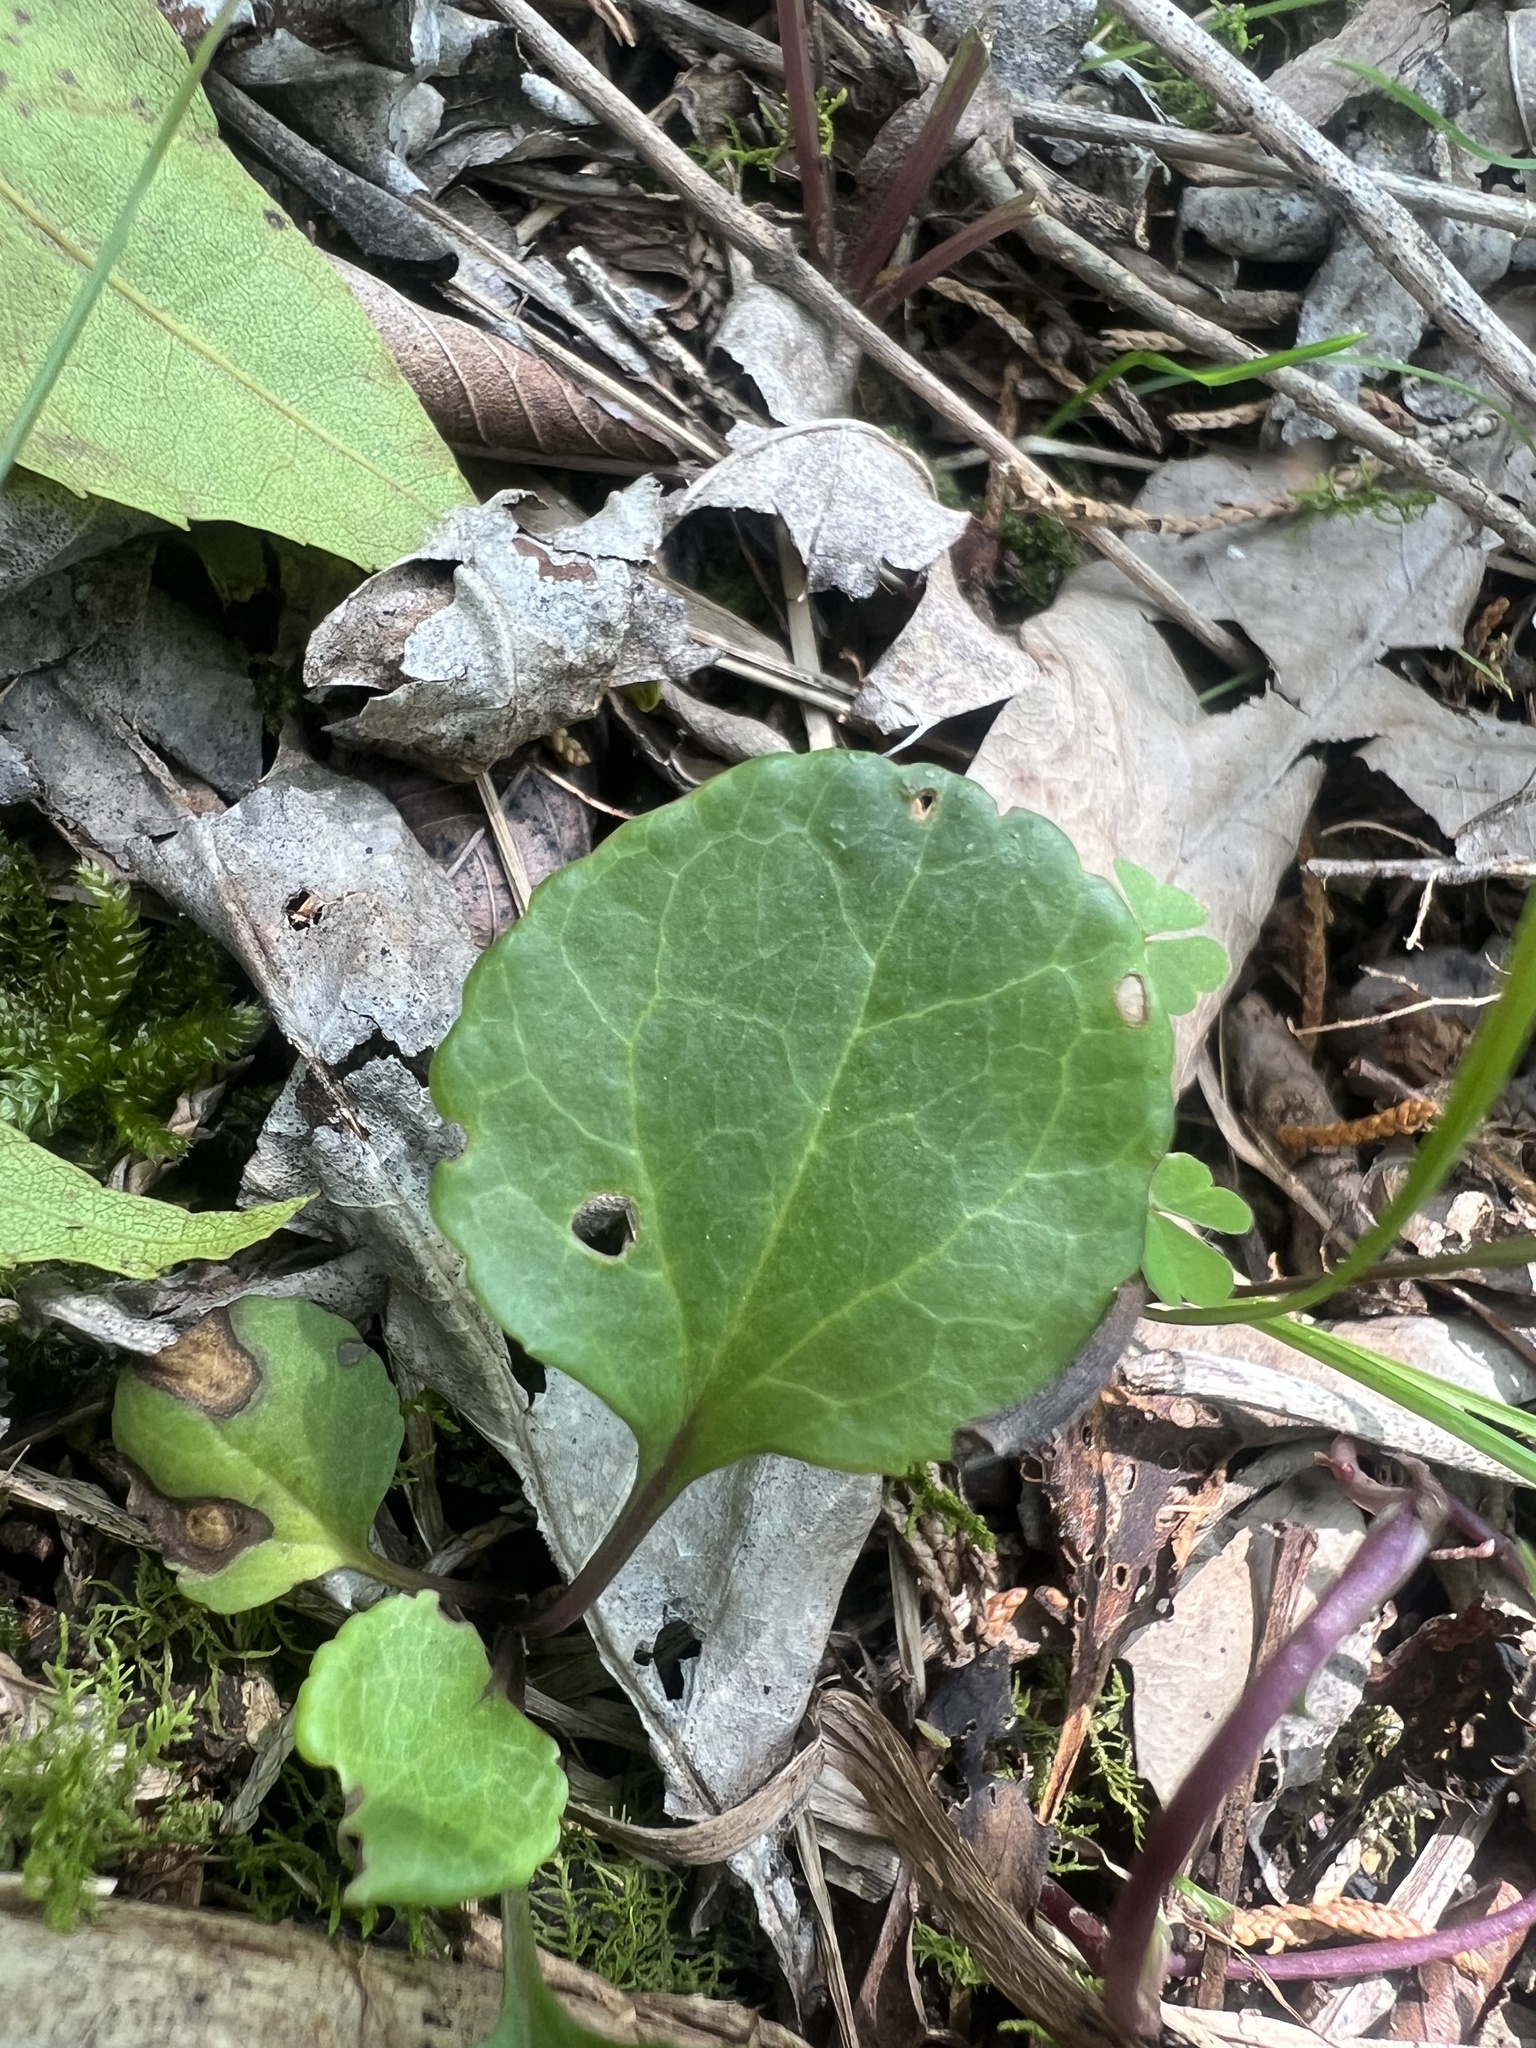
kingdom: Plantae
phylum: Tracheophyta
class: Magnoliopsida
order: Asterales
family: Asteraceae
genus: Packera
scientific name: Packera obovata
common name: Round-leaf ragwort
